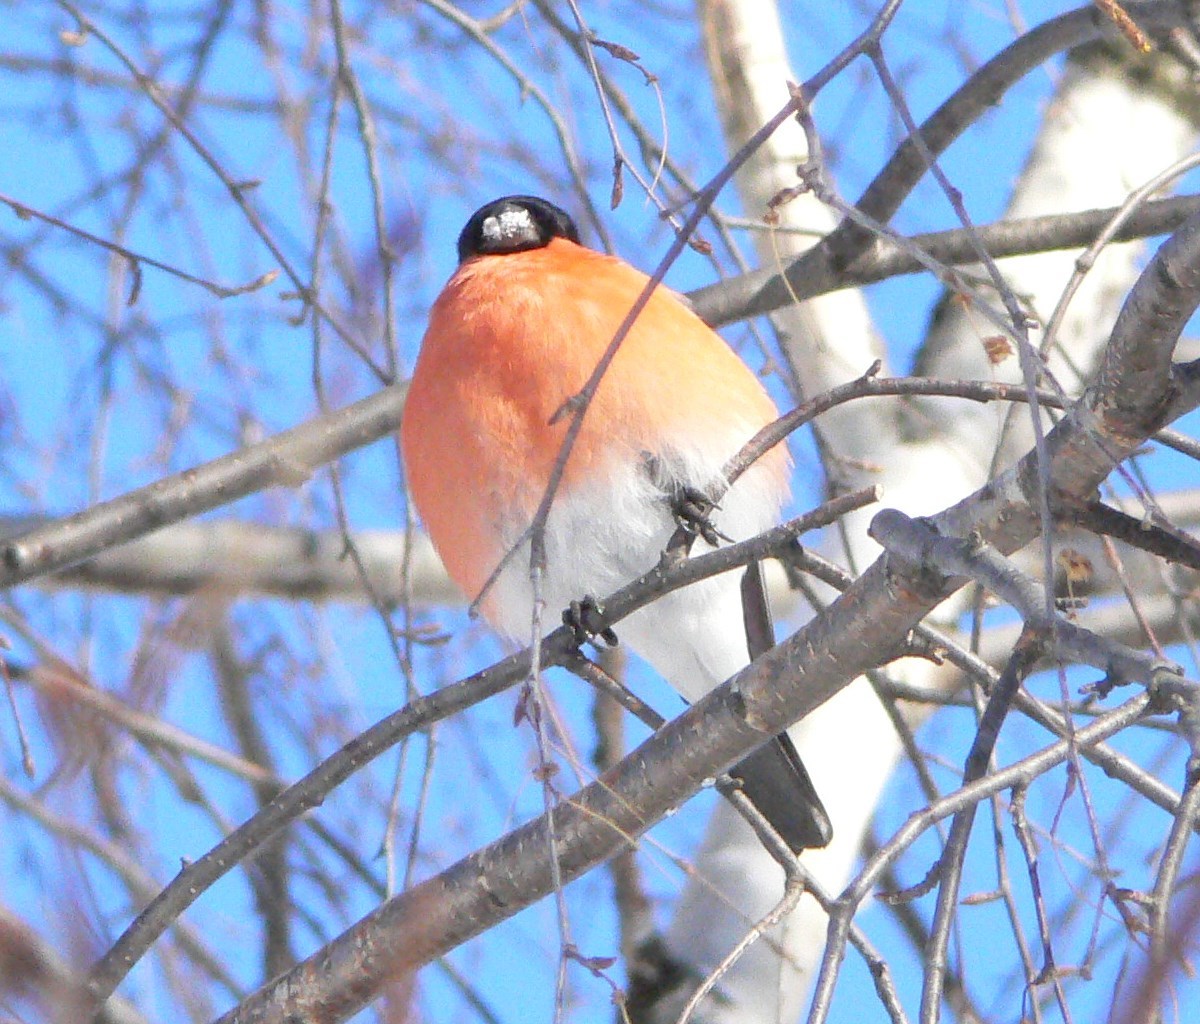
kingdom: Animalia
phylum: Chordata
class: Aves
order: Passeriformes
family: Fringillidae
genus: Pyrrhula
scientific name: Pyrrhula pyrrhula
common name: Eurasian bullfinch
